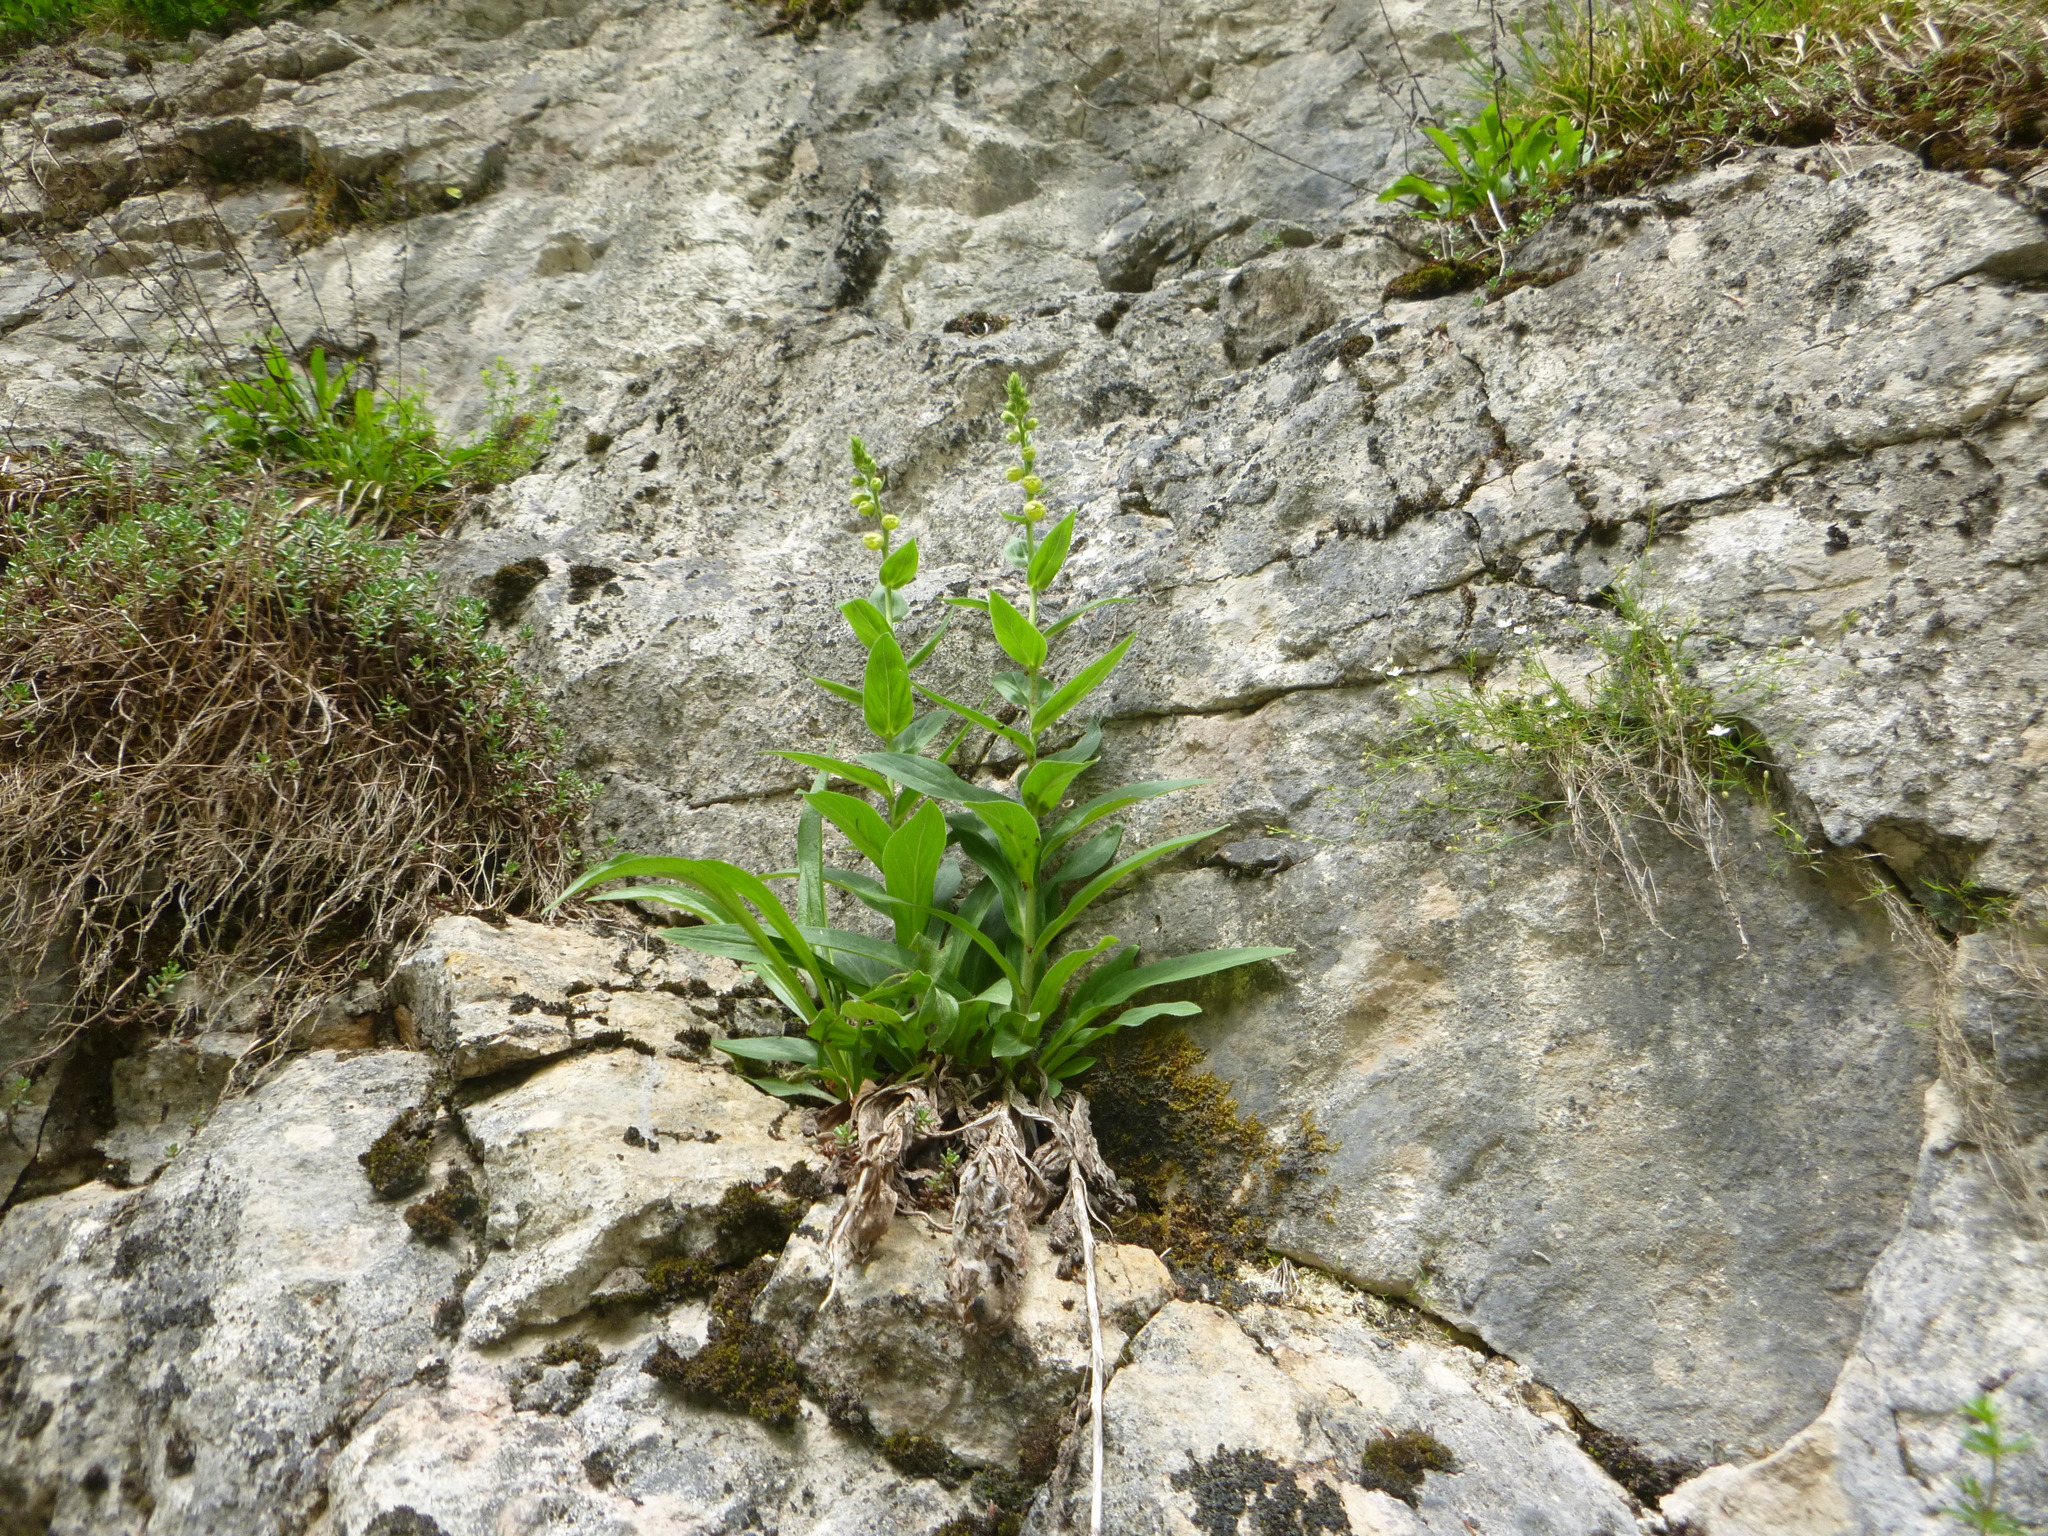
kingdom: Plantae
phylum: Tracheophyta
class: Magnoliopsida
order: Lamiales
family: Plantaginaceae
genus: Digitalis
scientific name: Digitalis grandiflora
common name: Yellow foxglove
